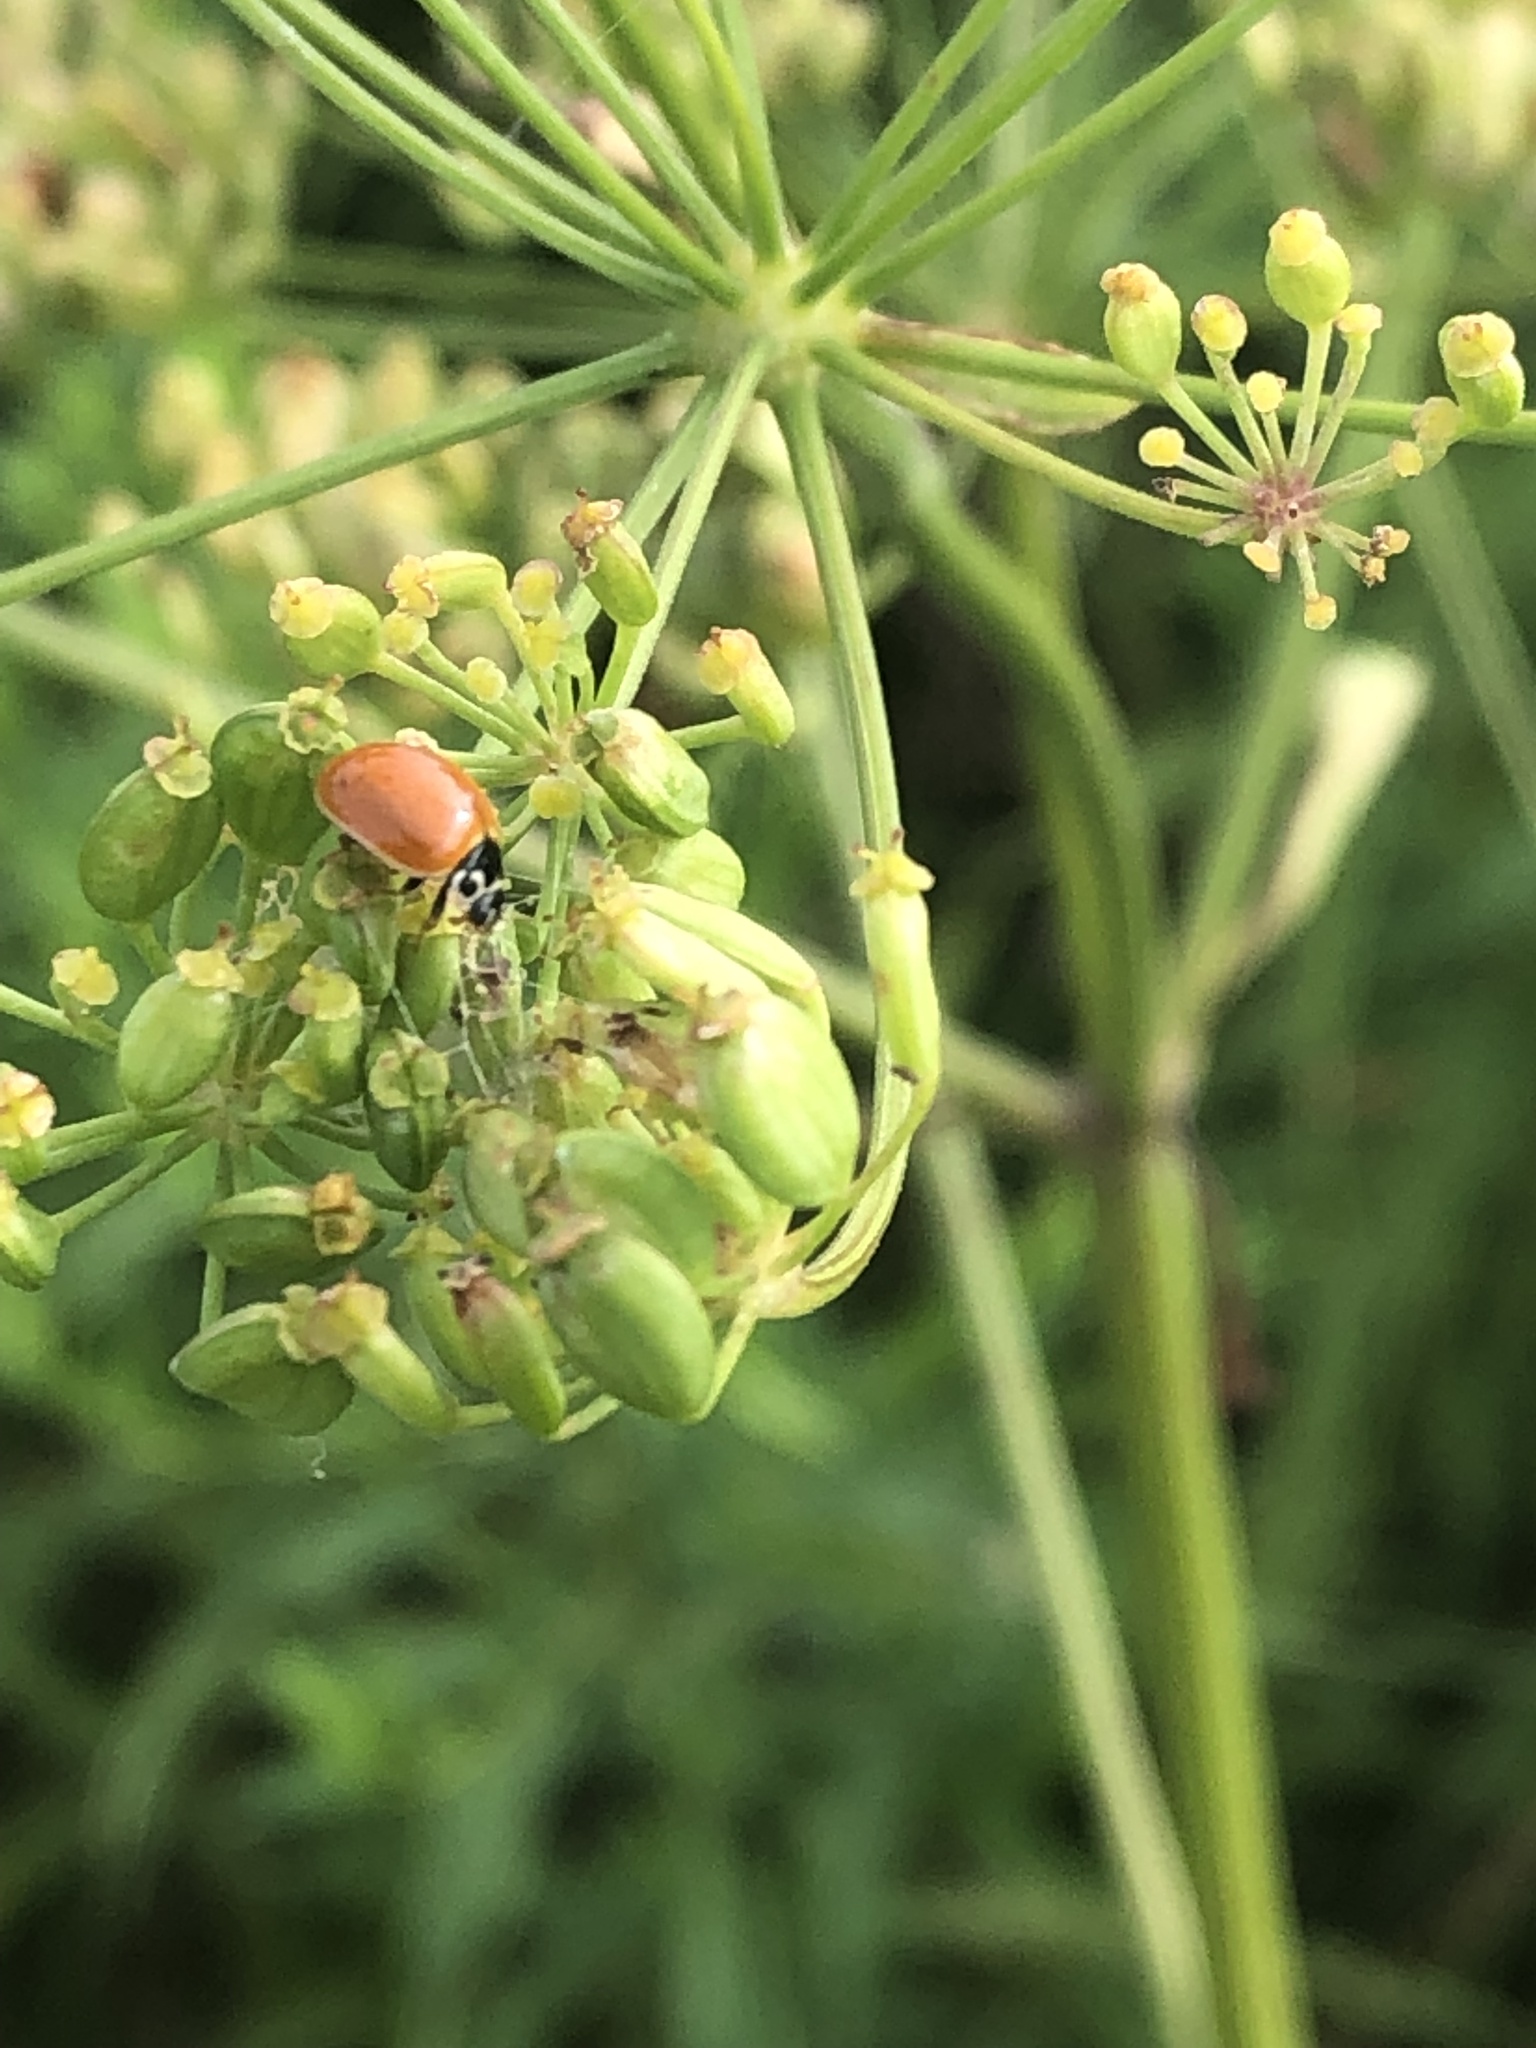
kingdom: Animalia
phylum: Arthropoda
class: Insecta
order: Coleoptera
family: Coccinellidae
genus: Cycloneda
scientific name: Cycloneda munda
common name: Polished lady beetle
